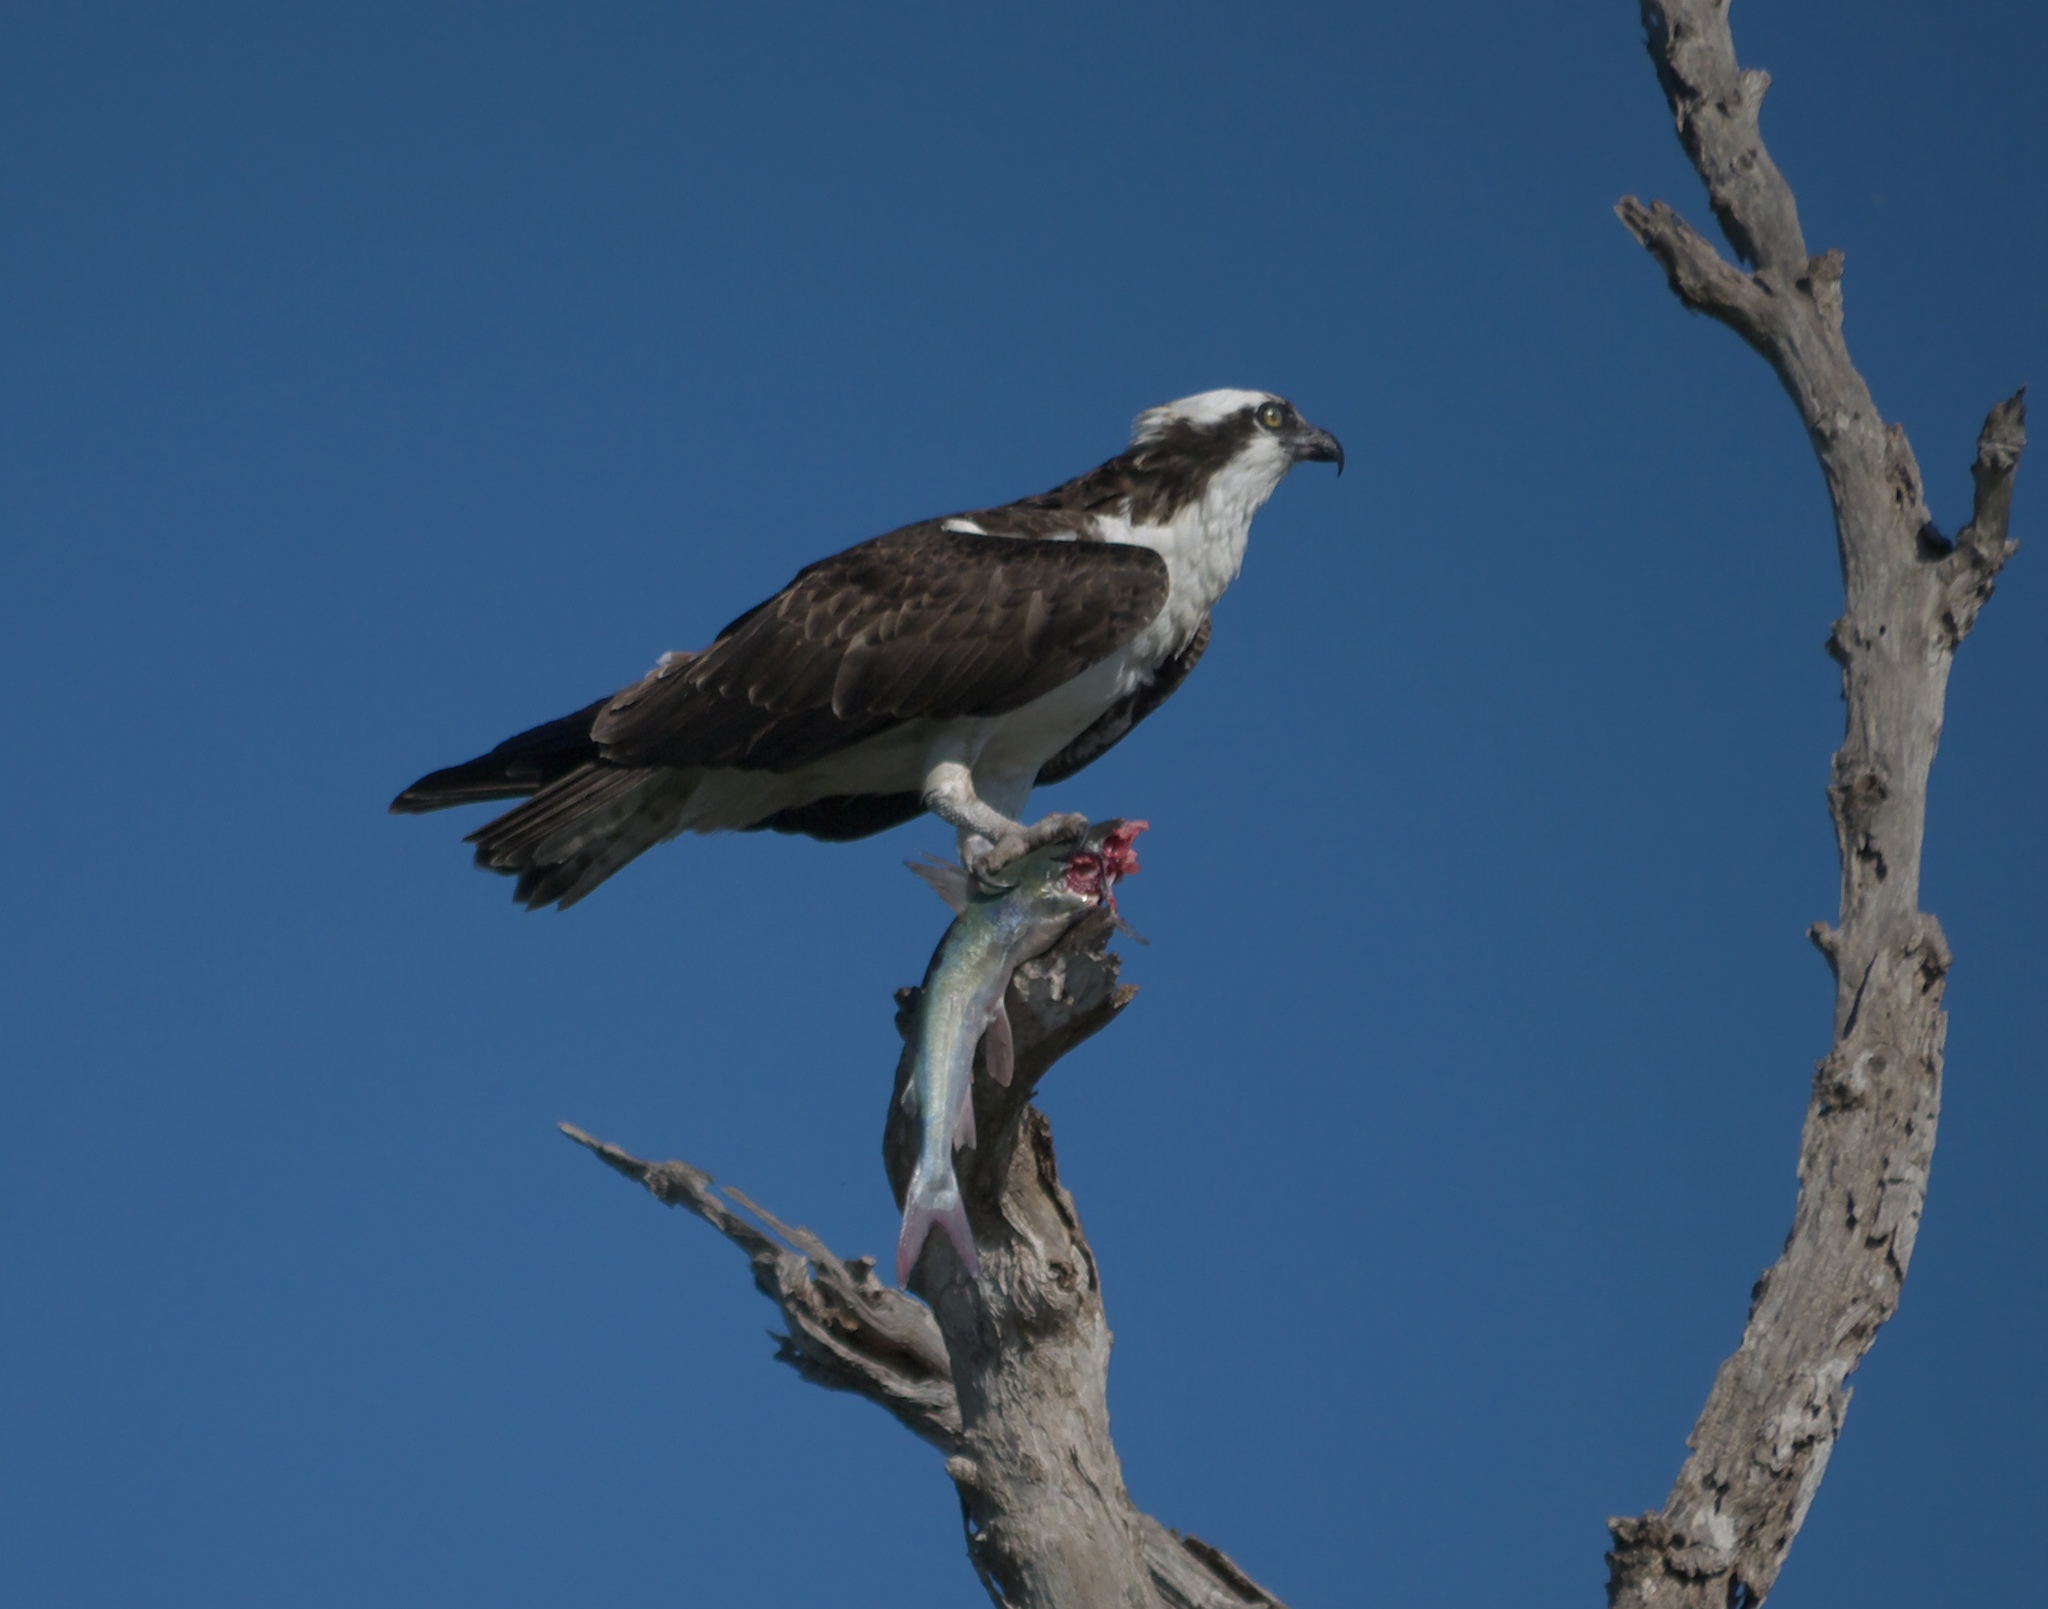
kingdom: Animalia
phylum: Chordata
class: Aves
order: Accipitriformes
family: Pandionidae
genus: Pandion
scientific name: Pandion haliaetus
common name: Osprey
